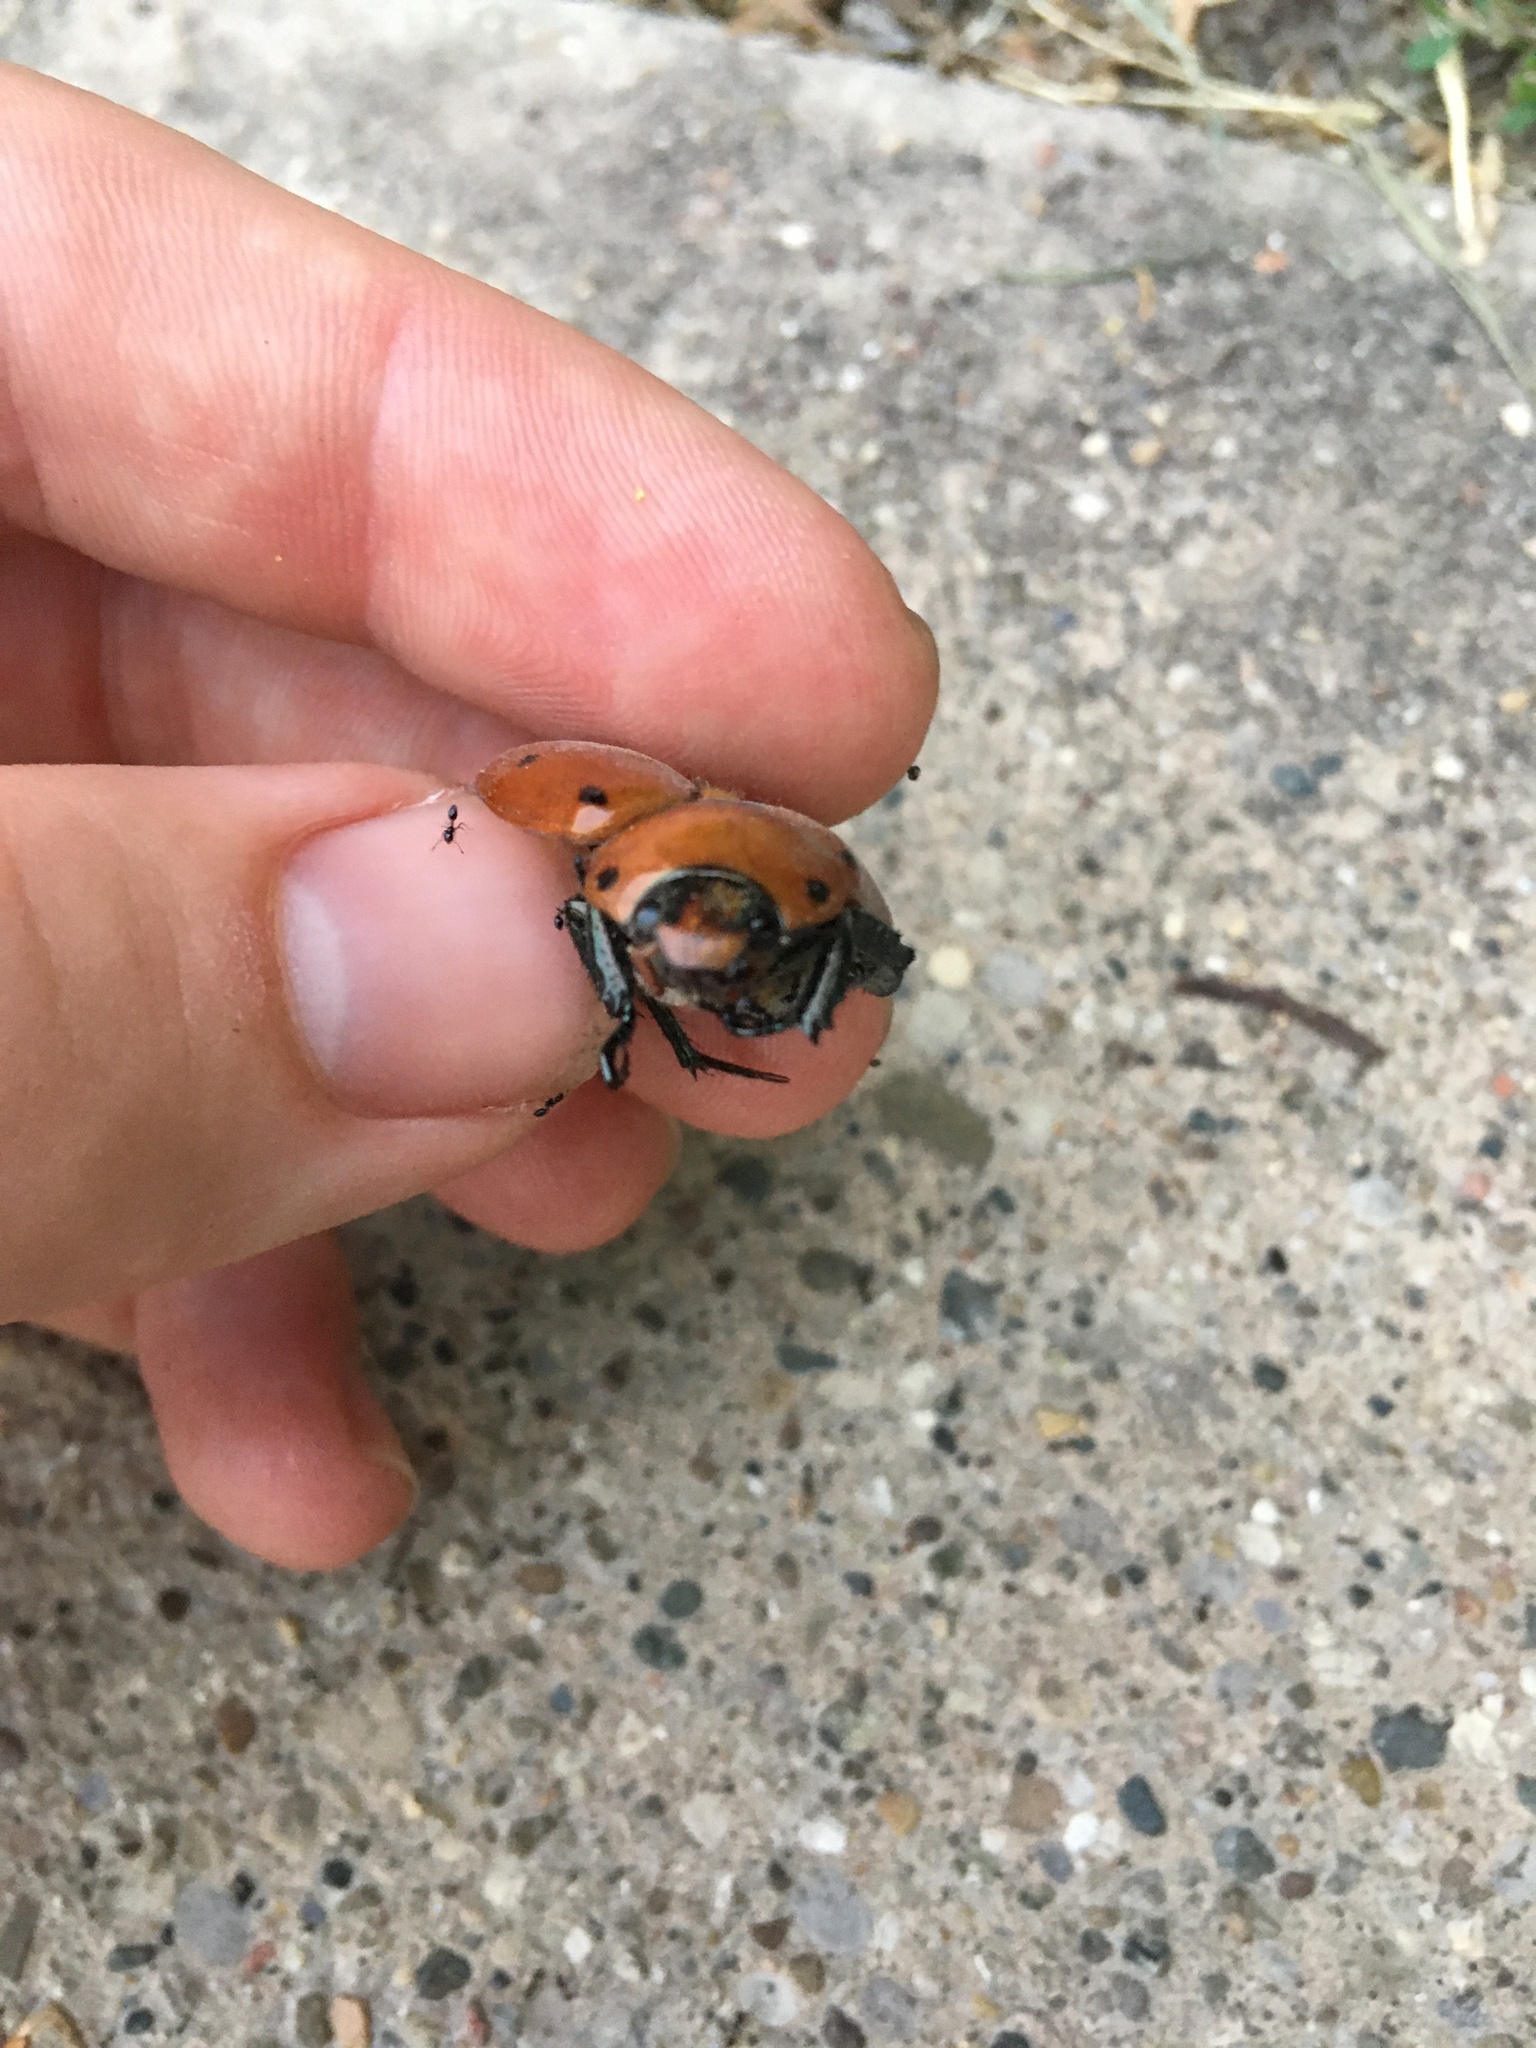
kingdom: Animalia
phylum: Arthropoda
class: Insecta
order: Coleoptera
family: Scarabaeidae
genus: Pelidnota
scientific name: Pelidnota punctata
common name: Grapevine beetle
